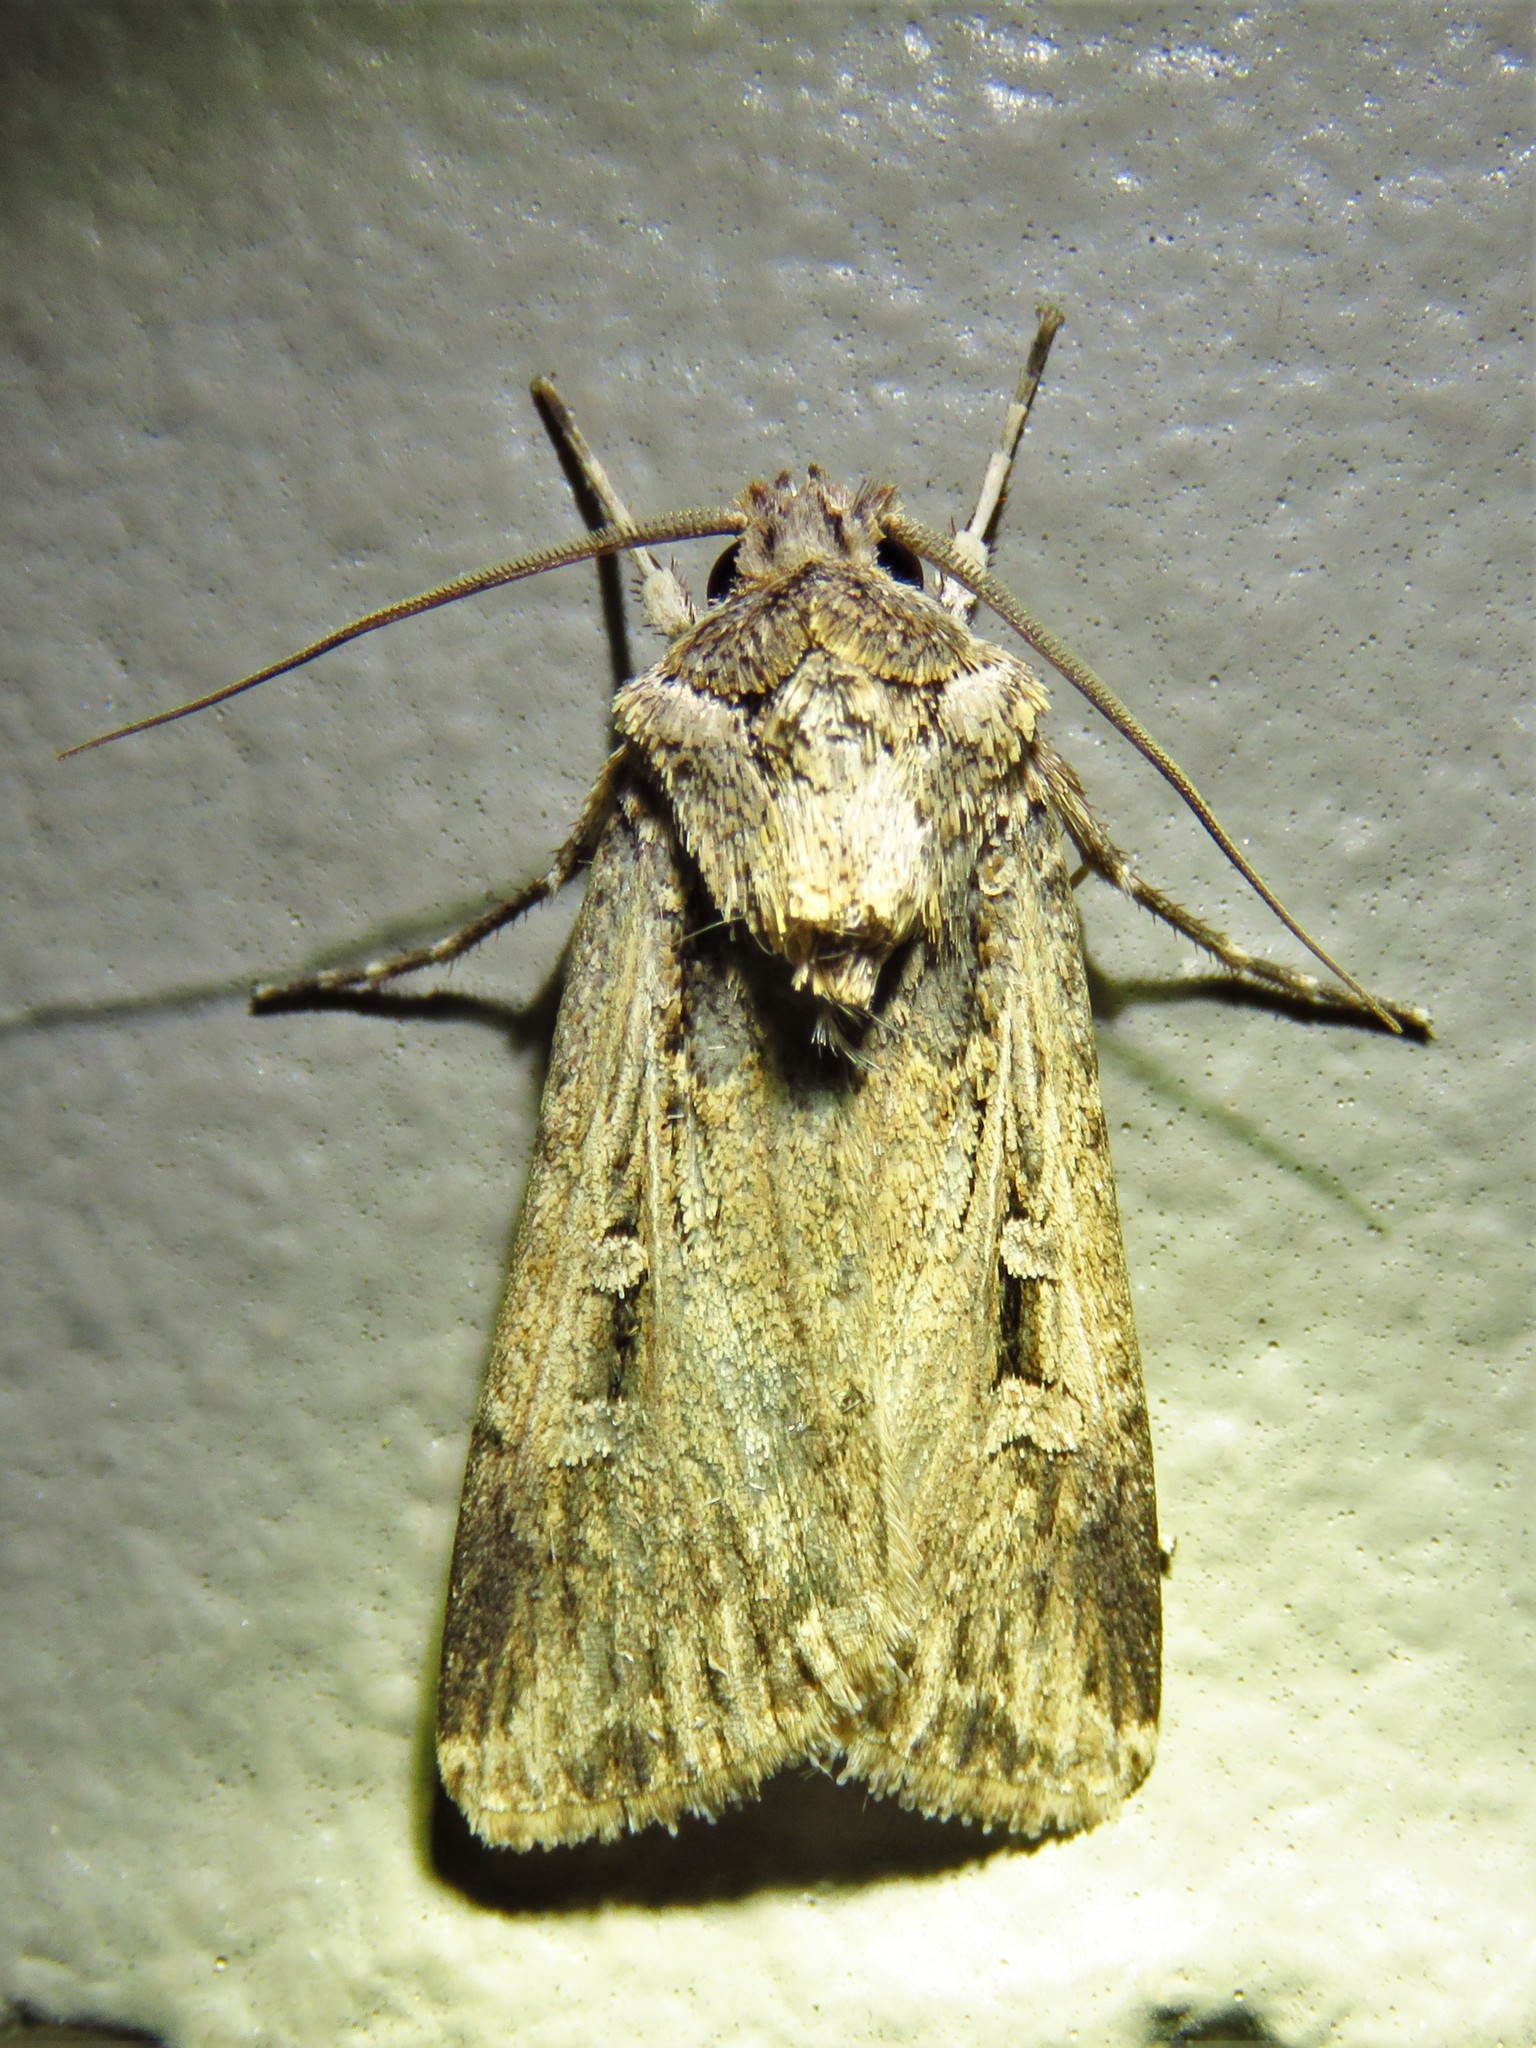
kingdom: Animalia
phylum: Arthropoda
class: Insecta
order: Lepidoptera
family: Noctuidae
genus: Feltia
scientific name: Feltia subterranea
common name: Granulate cutworm
